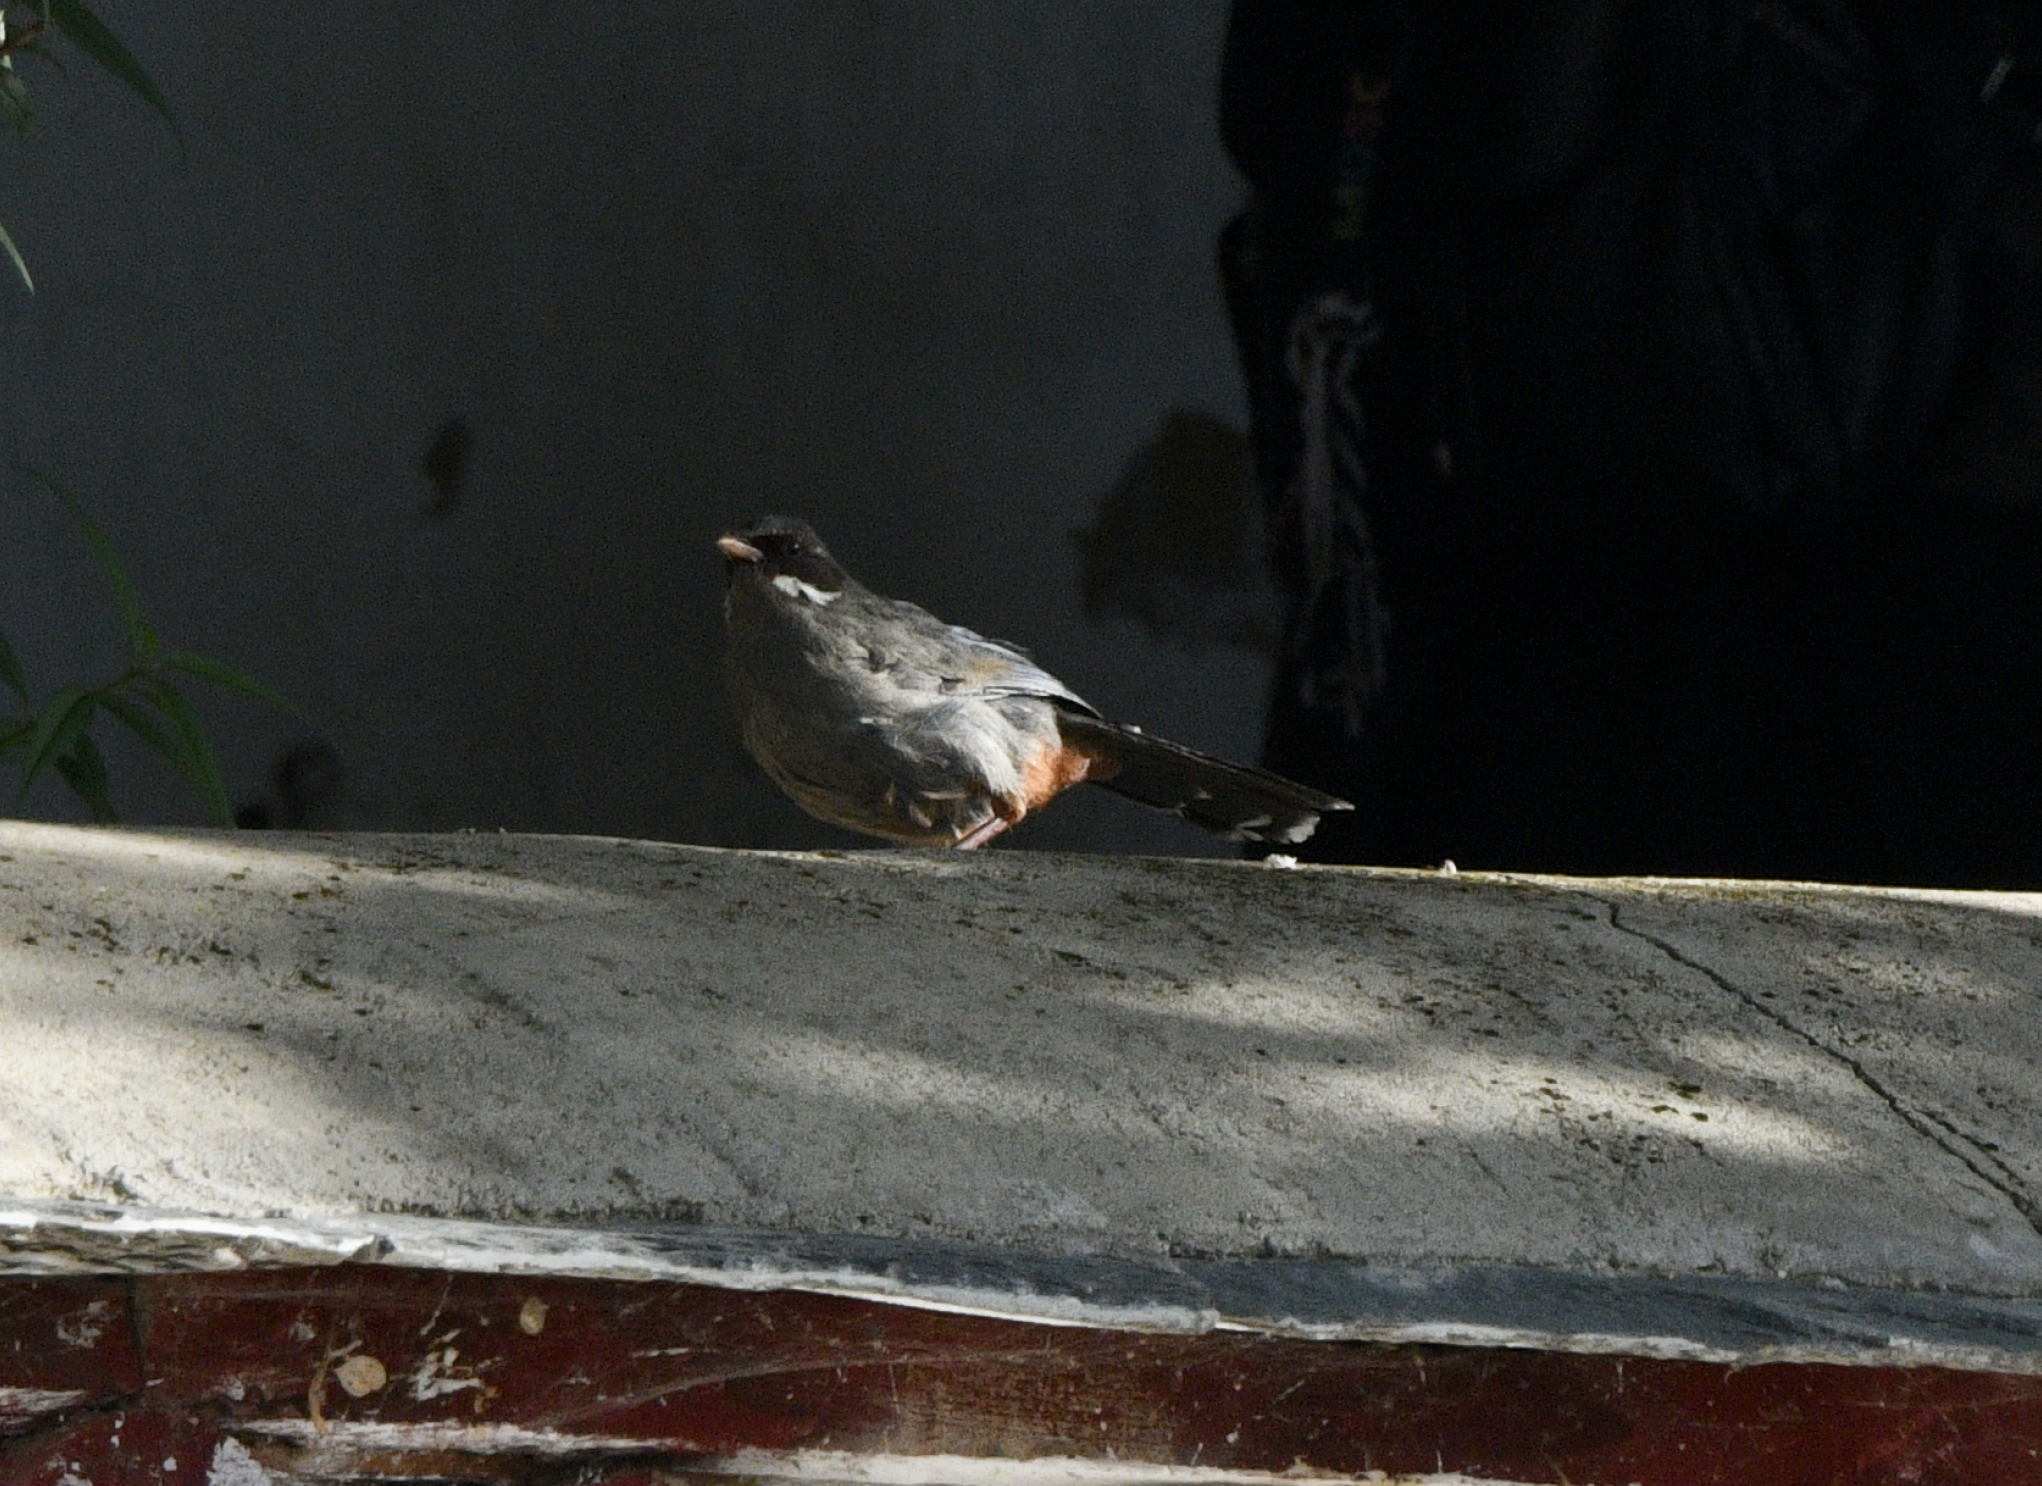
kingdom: Animalia
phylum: Chordata
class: Aves
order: Passeriformes
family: Leiothrichidae
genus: Trochalopteron
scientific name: Trochalopteron henrici
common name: Brown-cheeked laughingthrush
